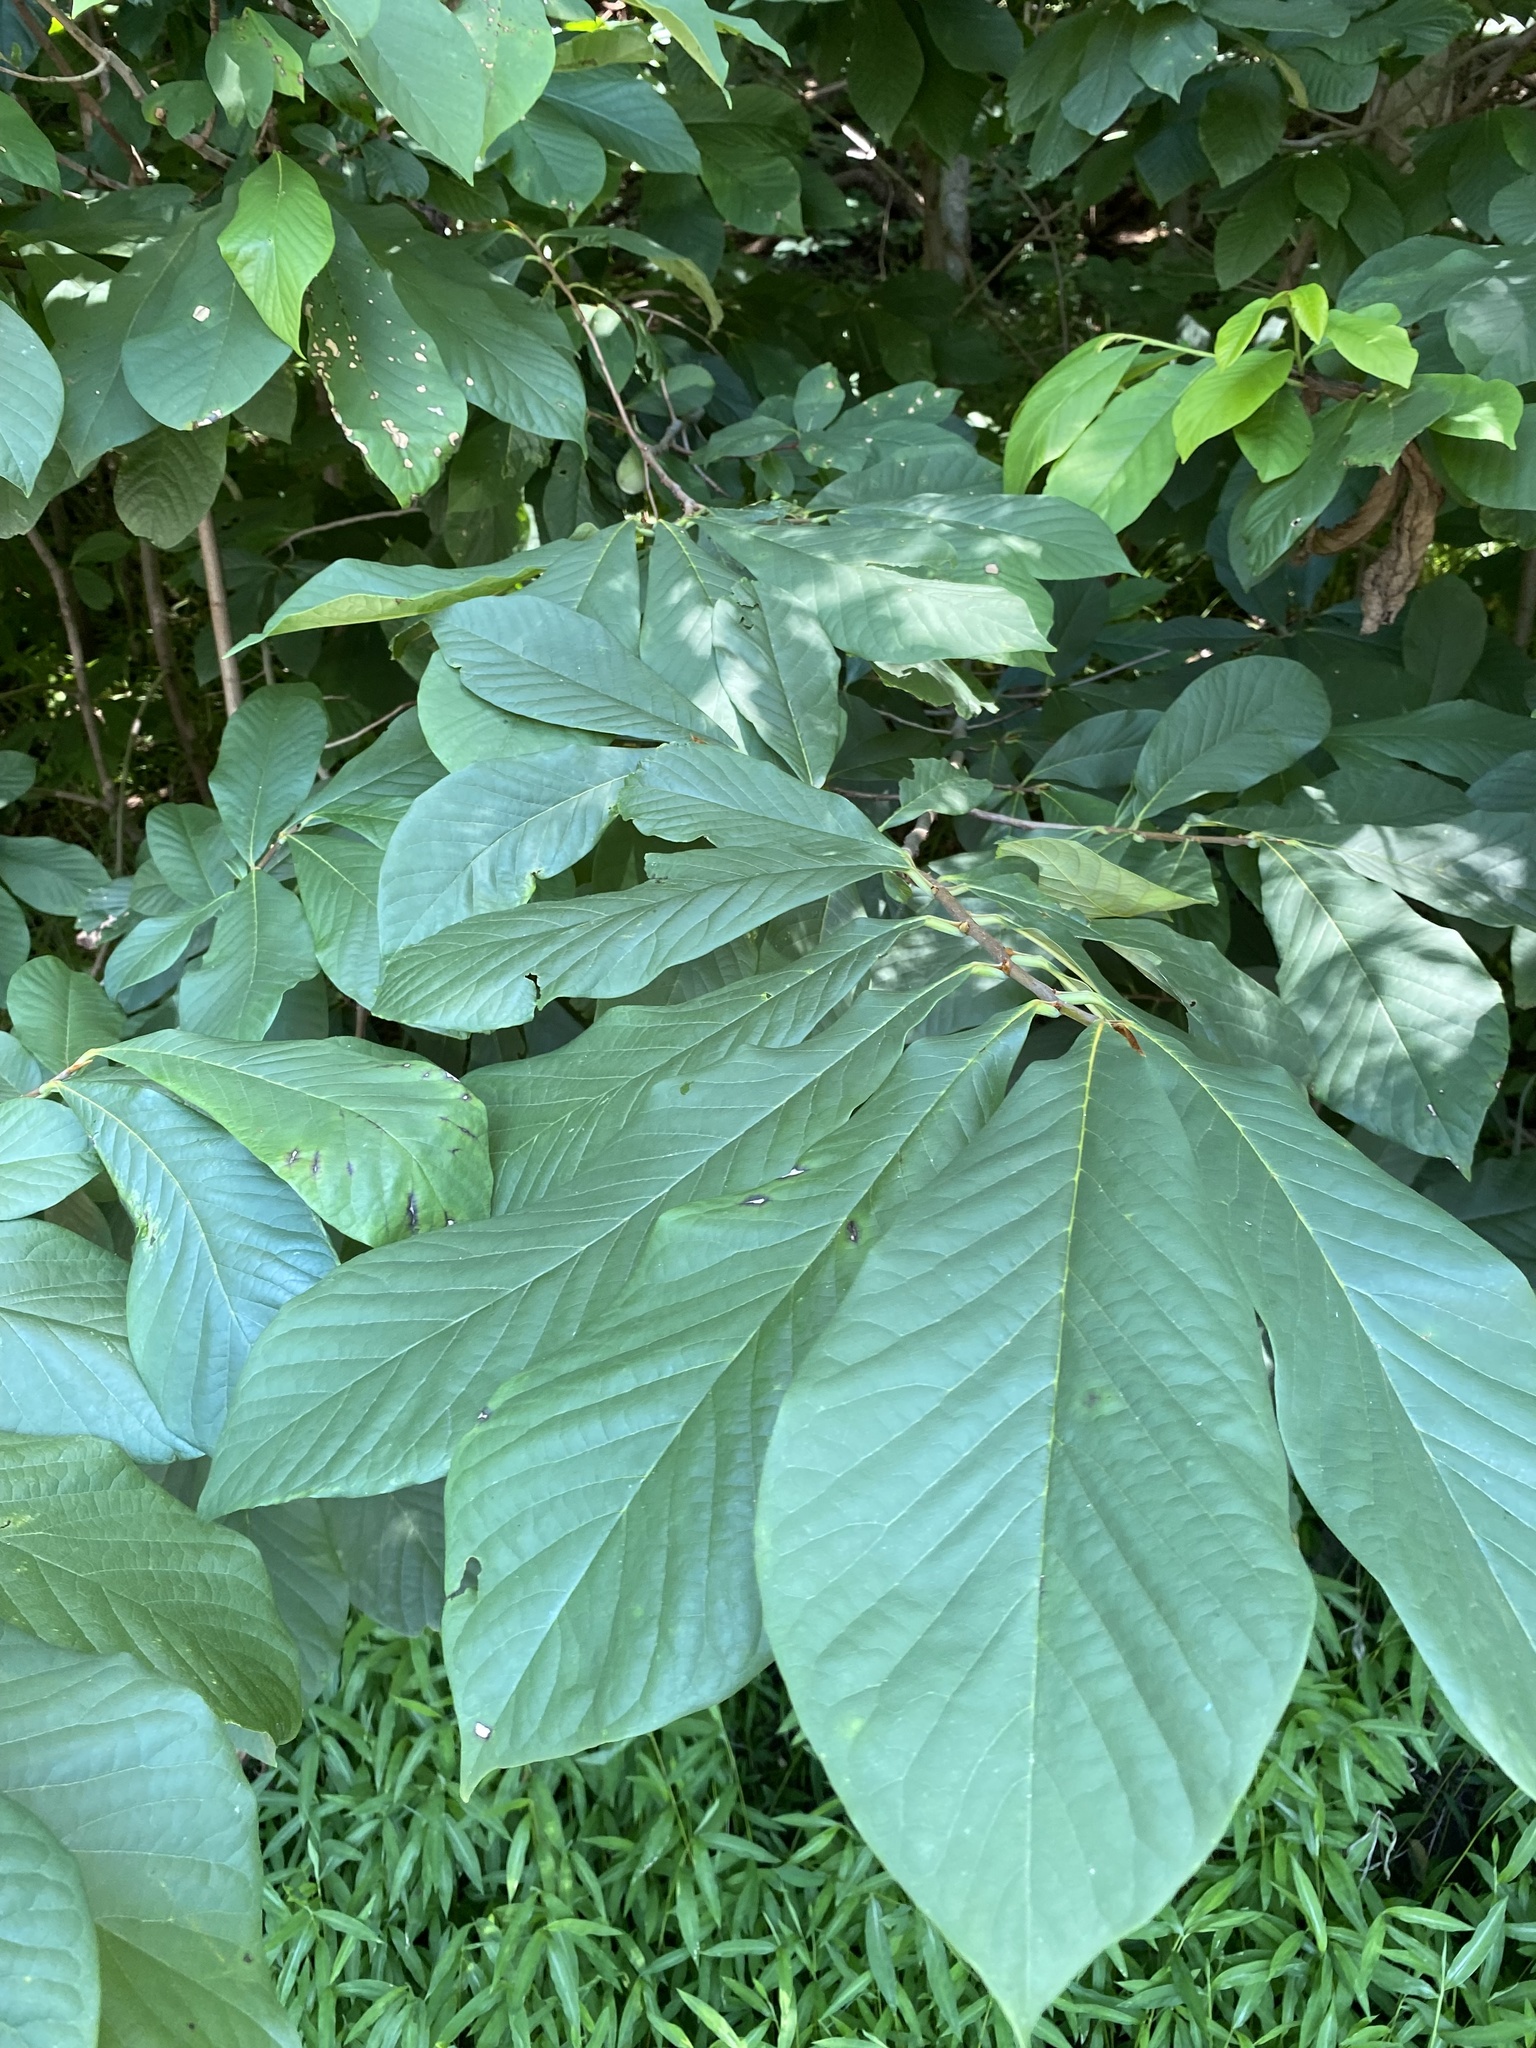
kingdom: Plantae
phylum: Tracheophyta
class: Magnoliopsida
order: Magnoliales
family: Annonaceae
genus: Asimina
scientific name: Asimina triloba
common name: Dog-banana
